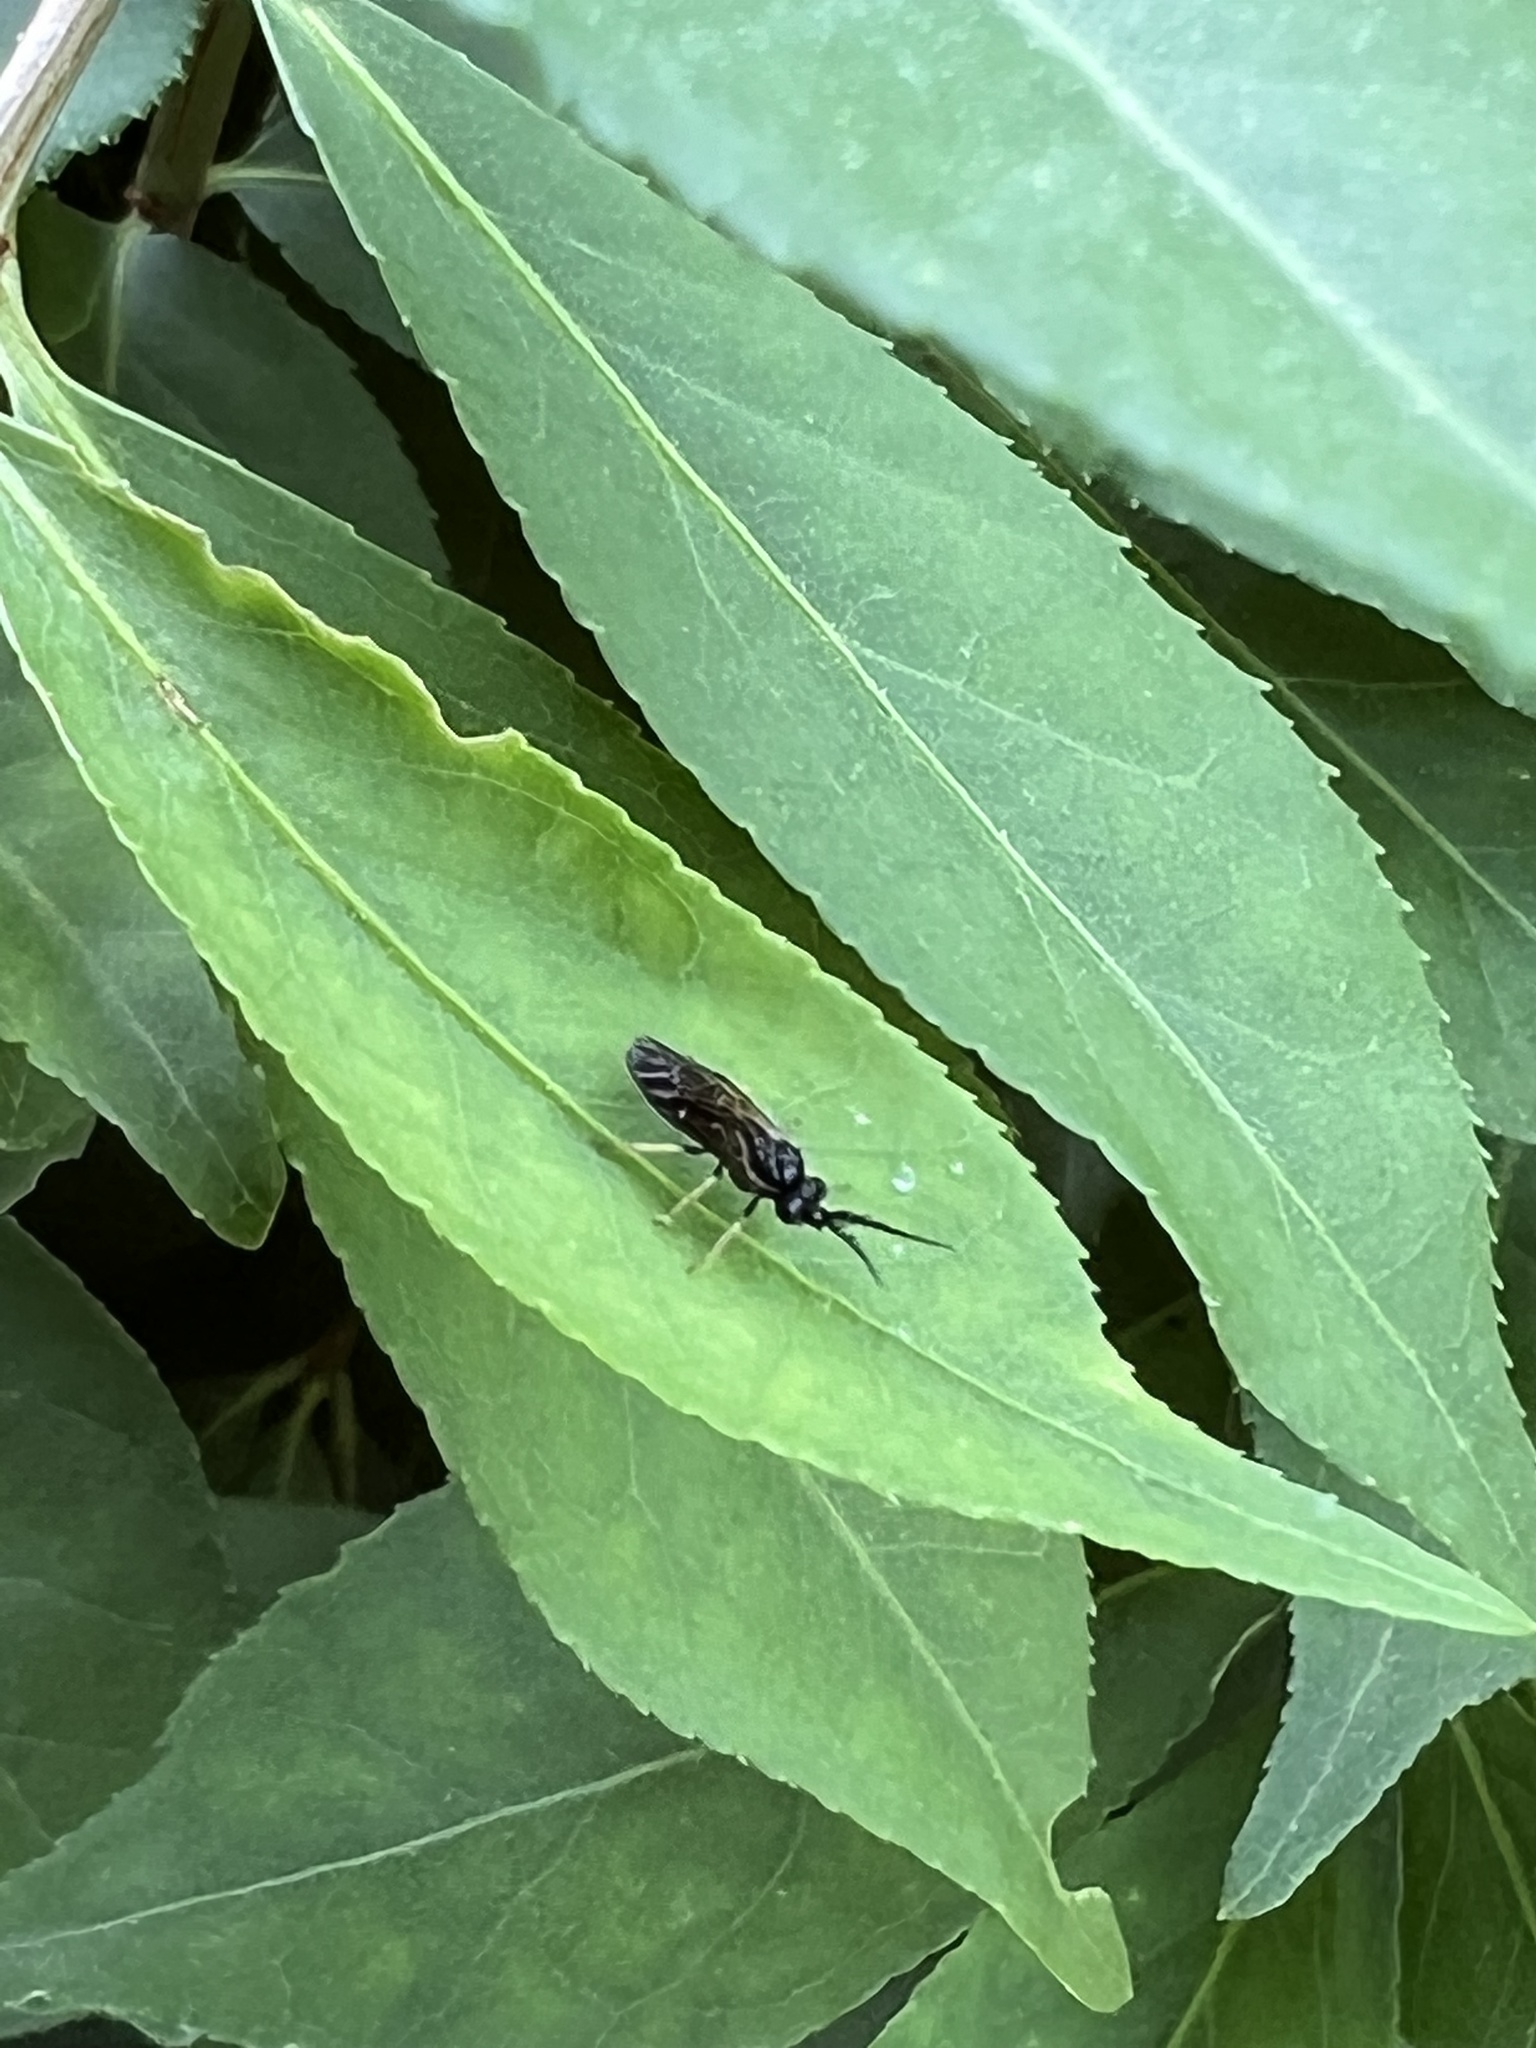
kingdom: Animalia
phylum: Arthropoda
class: Insecta
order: Hymenoptera
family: Tenthredinidae
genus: Cladius
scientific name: Cladius pectinicornis
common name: Sawfly
